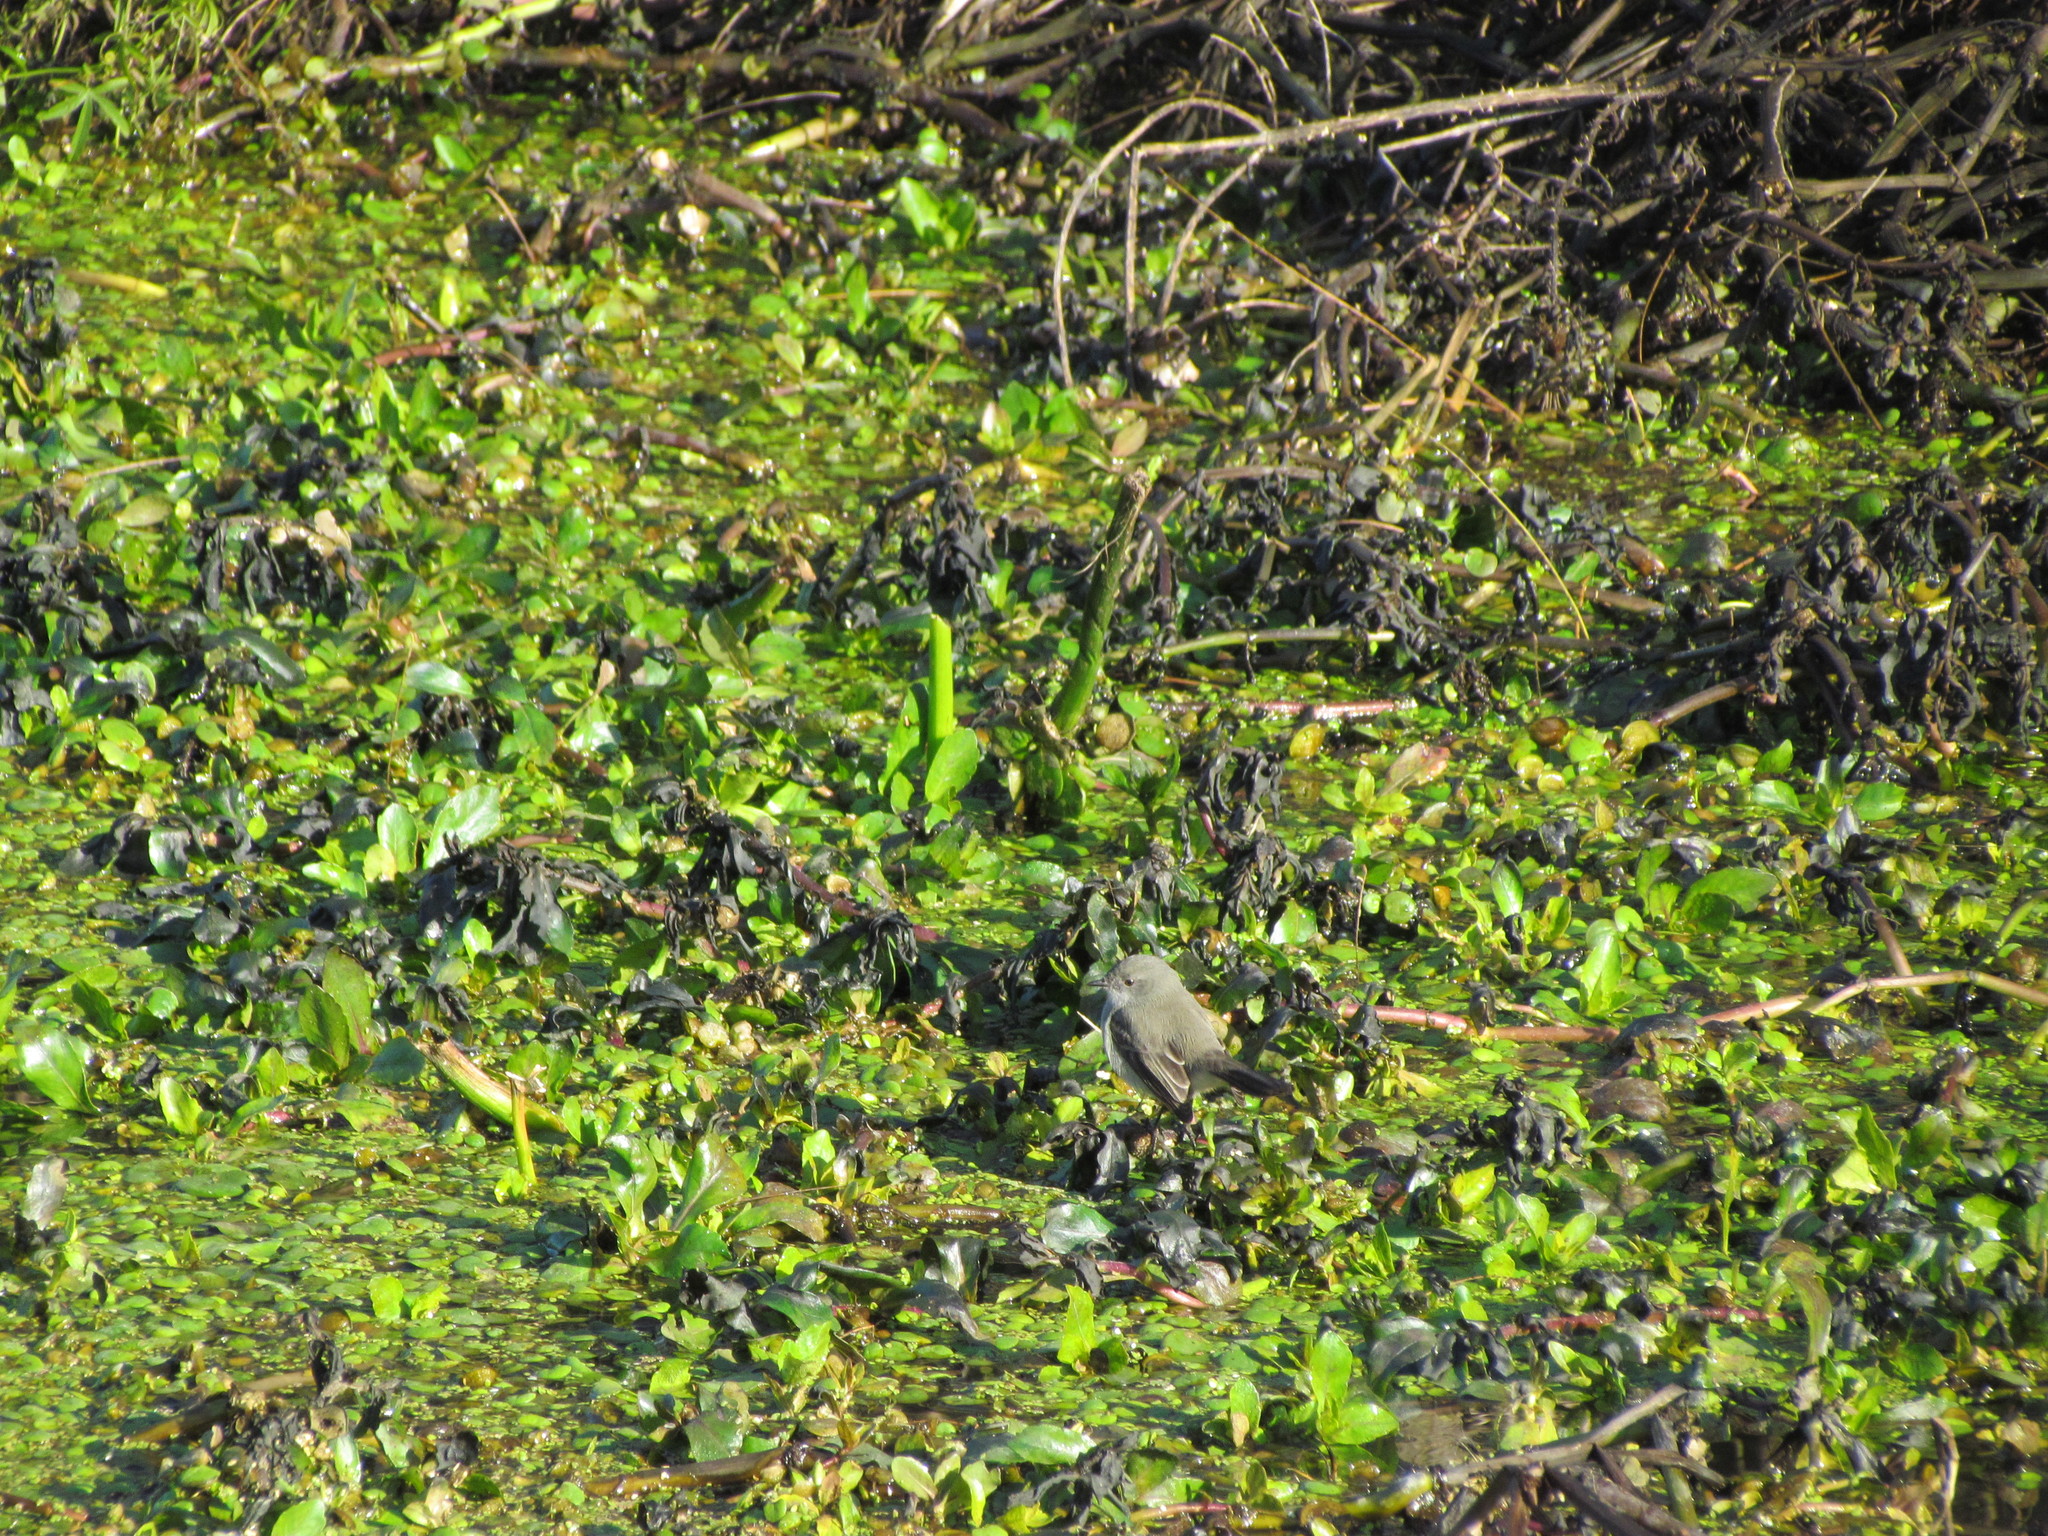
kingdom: Animalia
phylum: Chordata
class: Aves
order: Passeriformes
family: Tyrannidae
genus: Serpophaga
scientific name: Serpophaga nigricans
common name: Sooty tyrannulet
